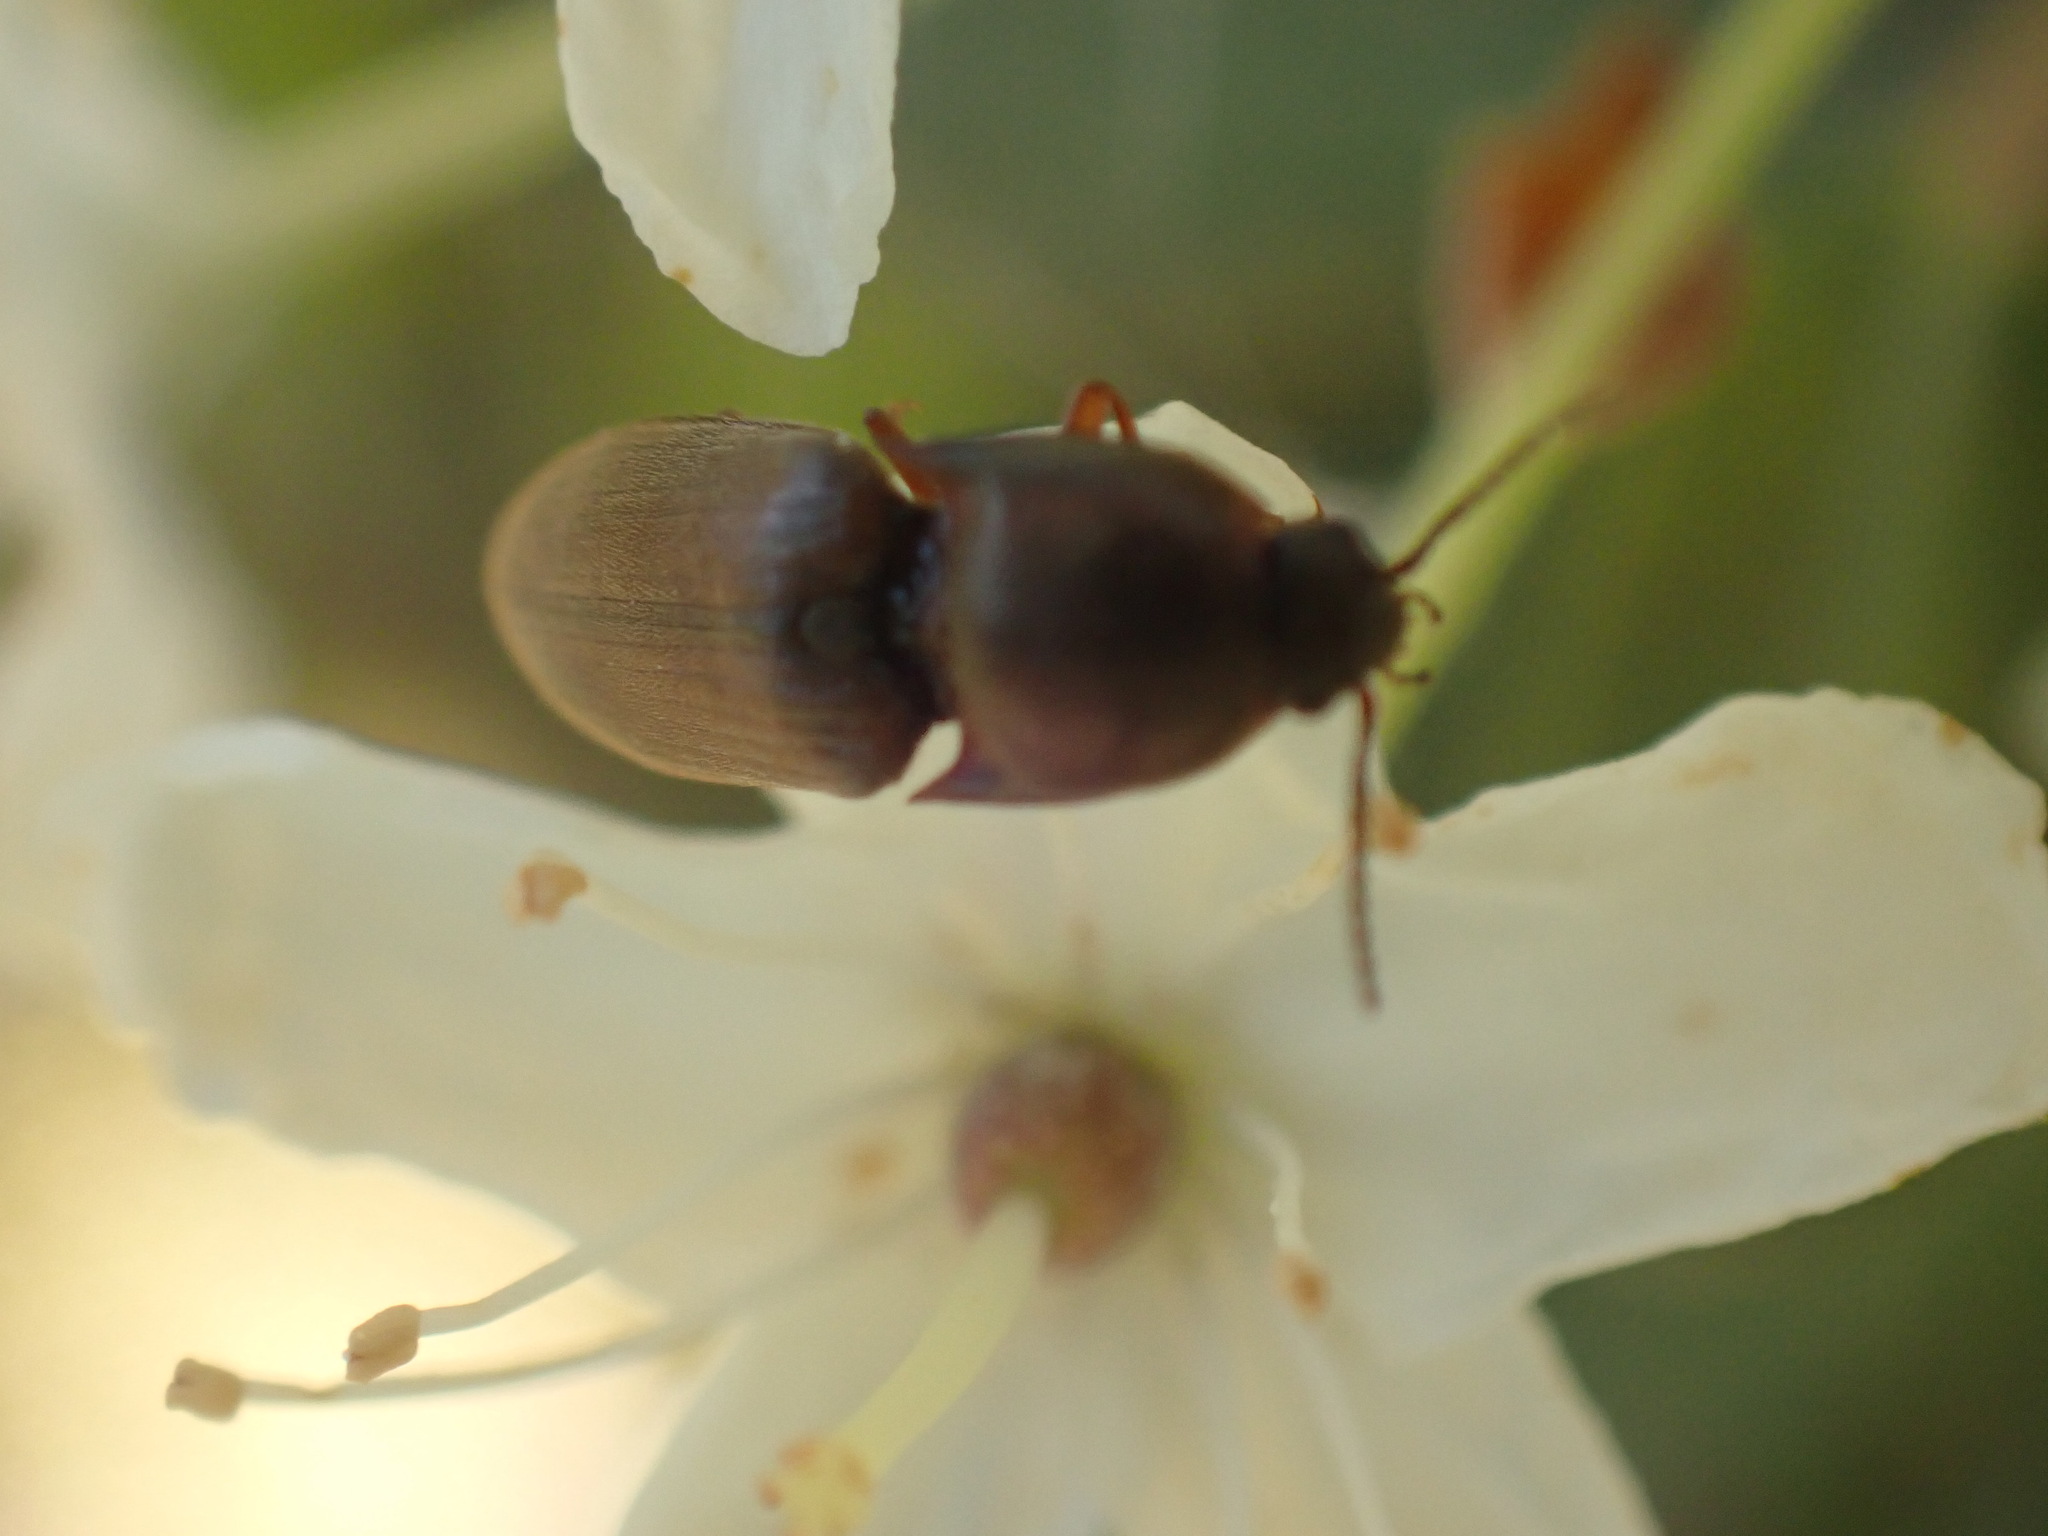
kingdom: Animalia
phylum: Arthropoda
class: Insecta
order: Coleoptera
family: Elateridae
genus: Sericus
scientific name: Sericus incongruus
